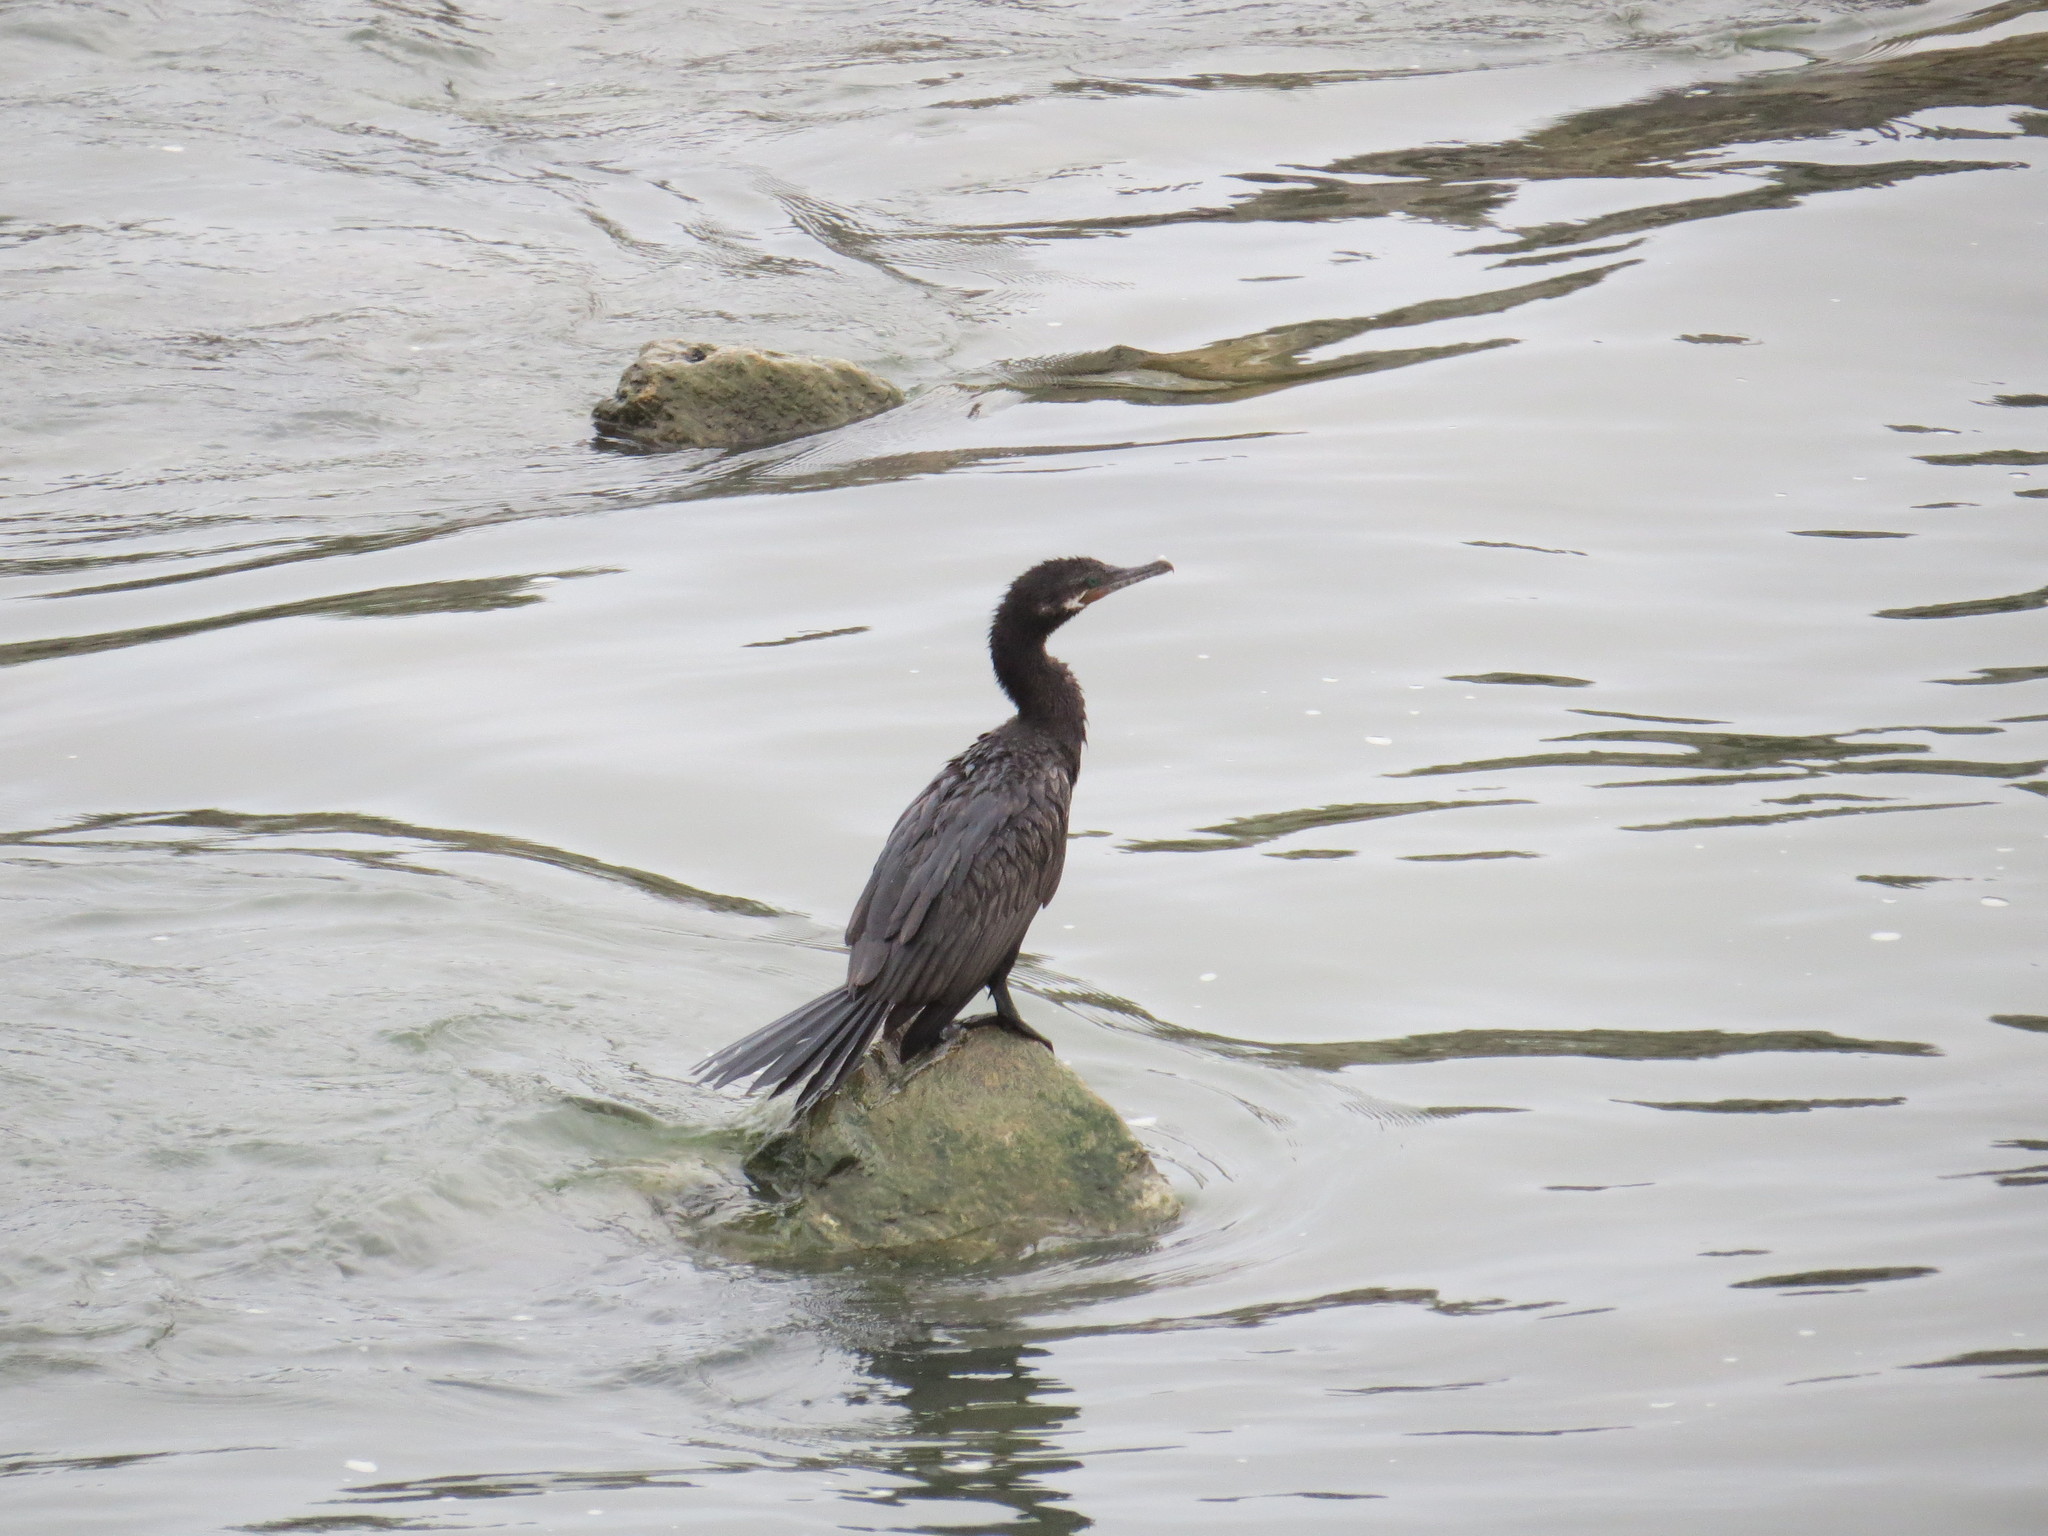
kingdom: Animalia
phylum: Chordata
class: Aves
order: Suliformes
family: Phalacrocoracidae
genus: Phalacrocorax
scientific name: Phalacrocorax brasilianus
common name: Neotropic cormorant
